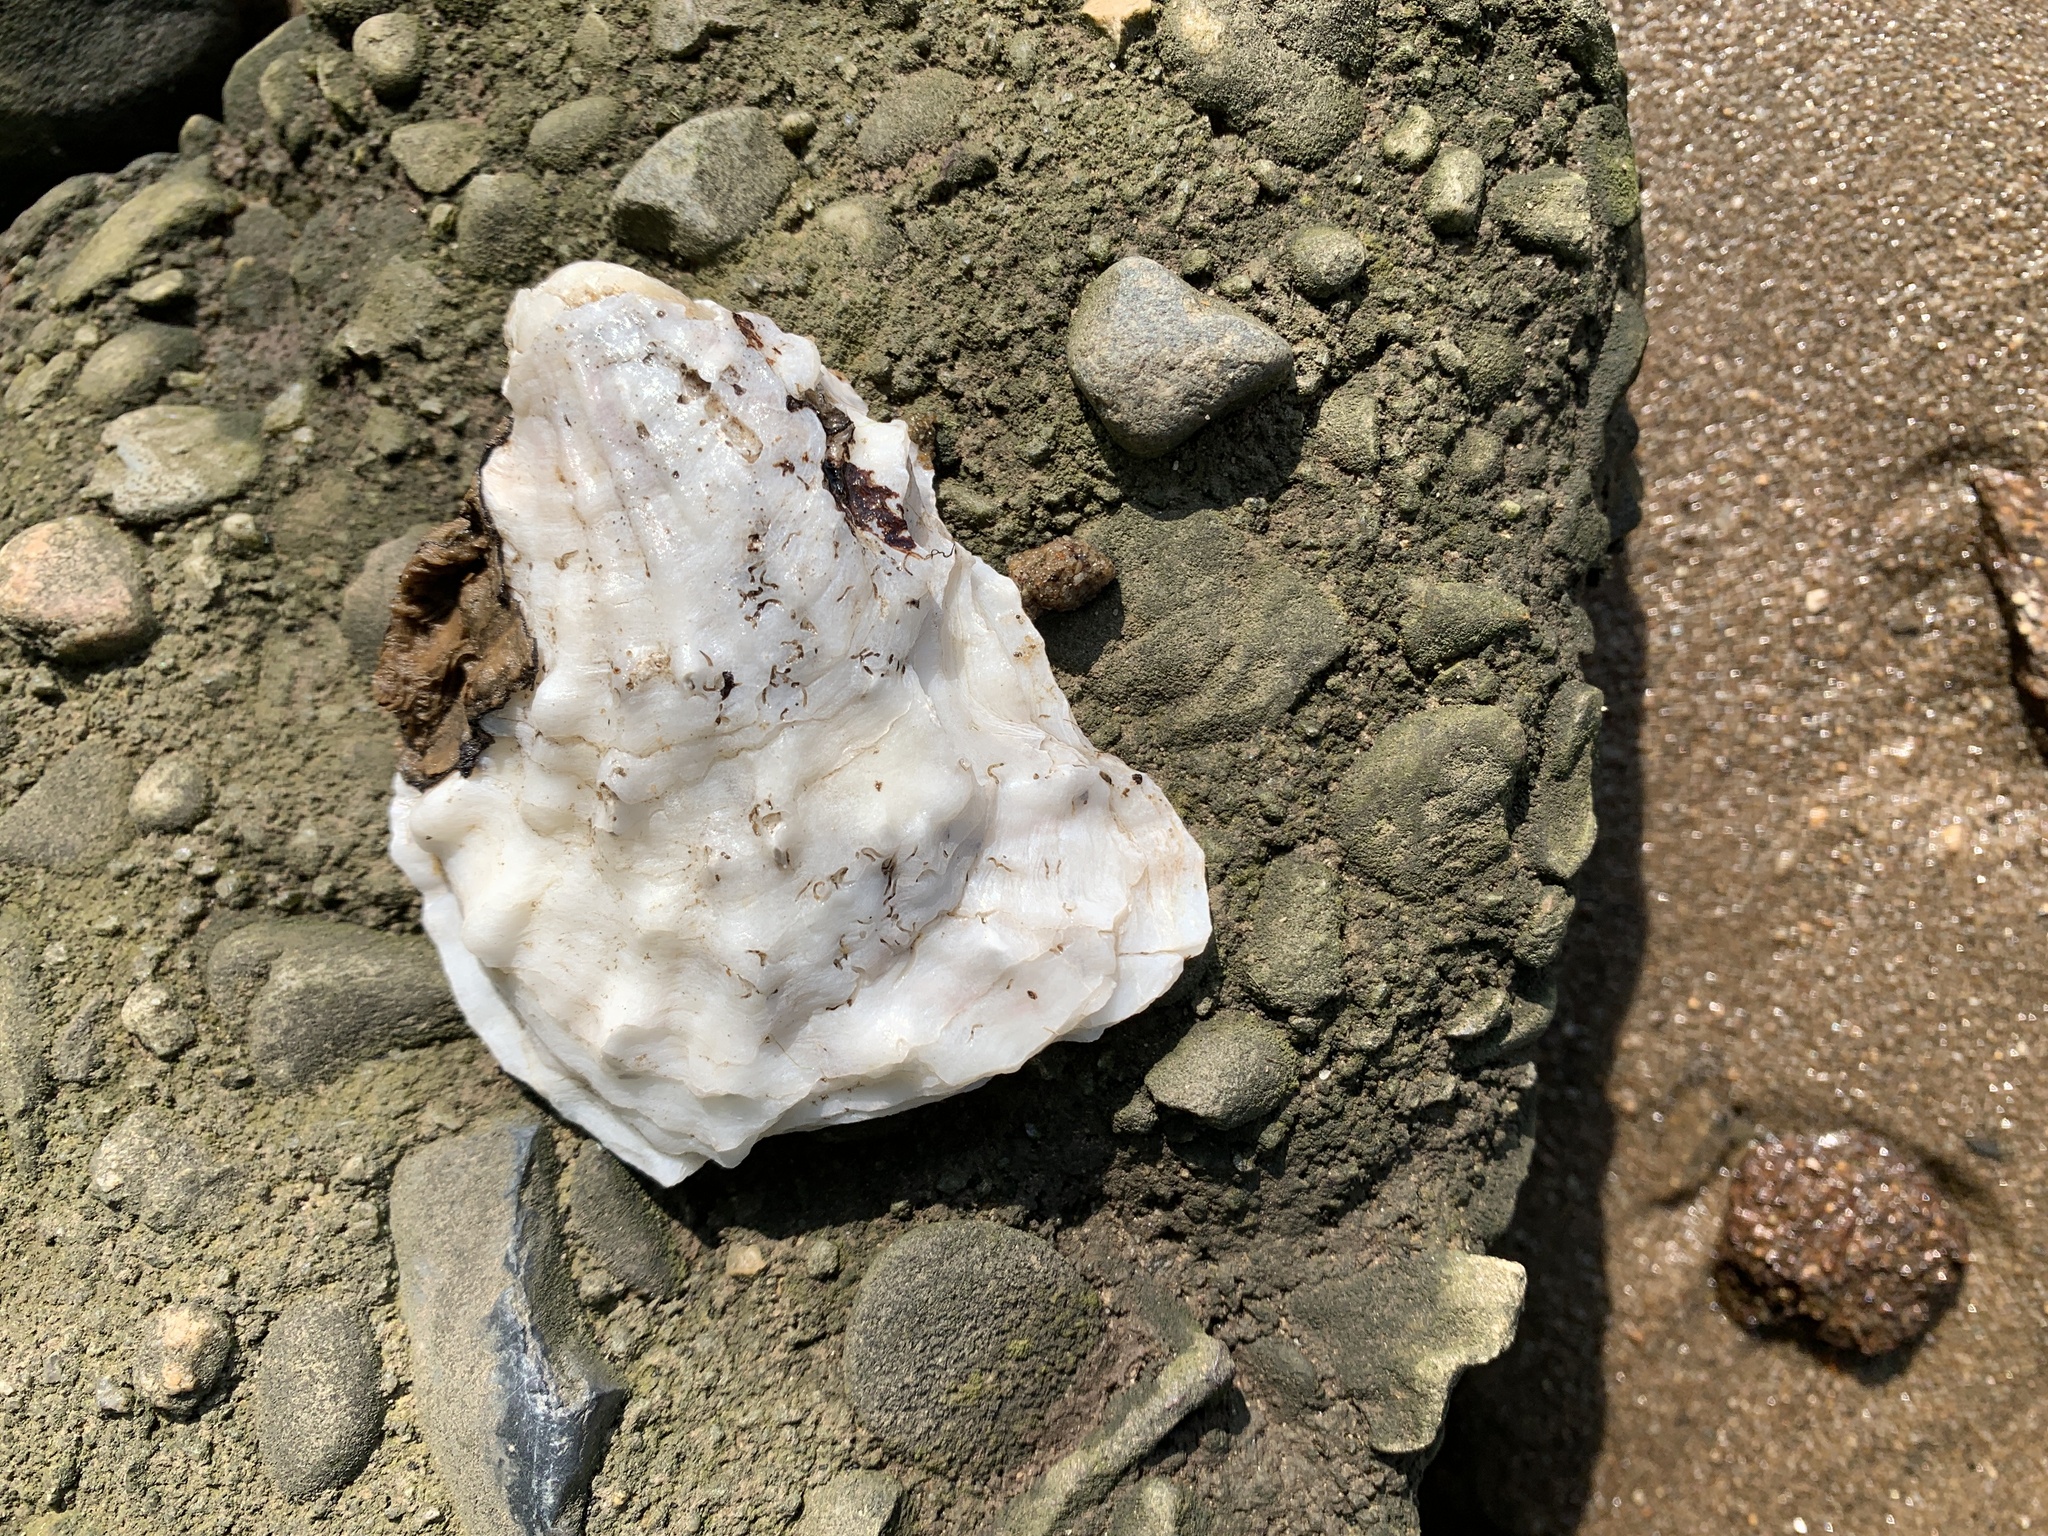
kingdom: Animalia
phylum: Mollusca
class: Bivalvia
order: Ostreida
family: Ostreidae
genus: Crassostrea
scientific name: Crassostrea virginica
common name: American oyster
